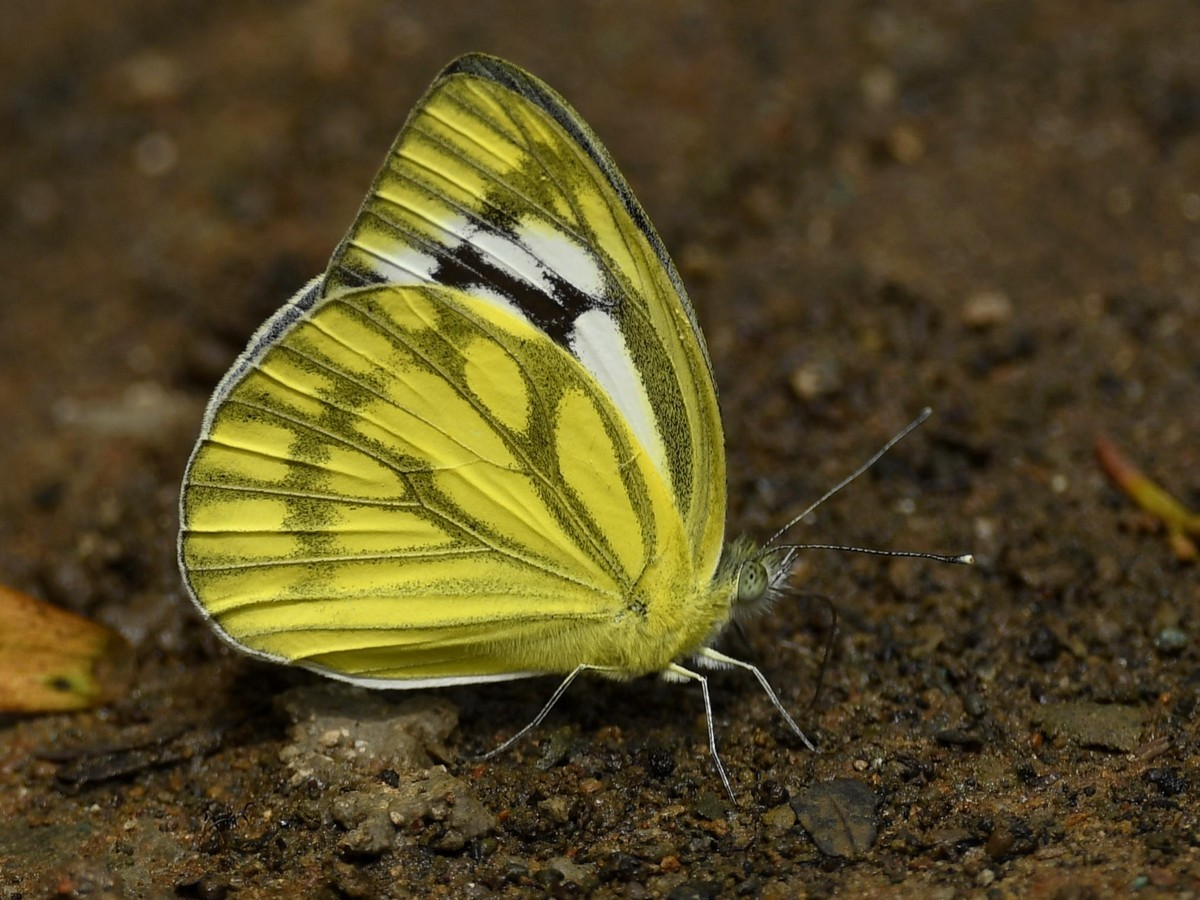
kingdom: Animalia
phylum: Arthropoda
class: Insecta
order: Lepidoptera
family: Pieridae
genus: Cepora
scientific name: Cepora nerissa
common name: Common gull
